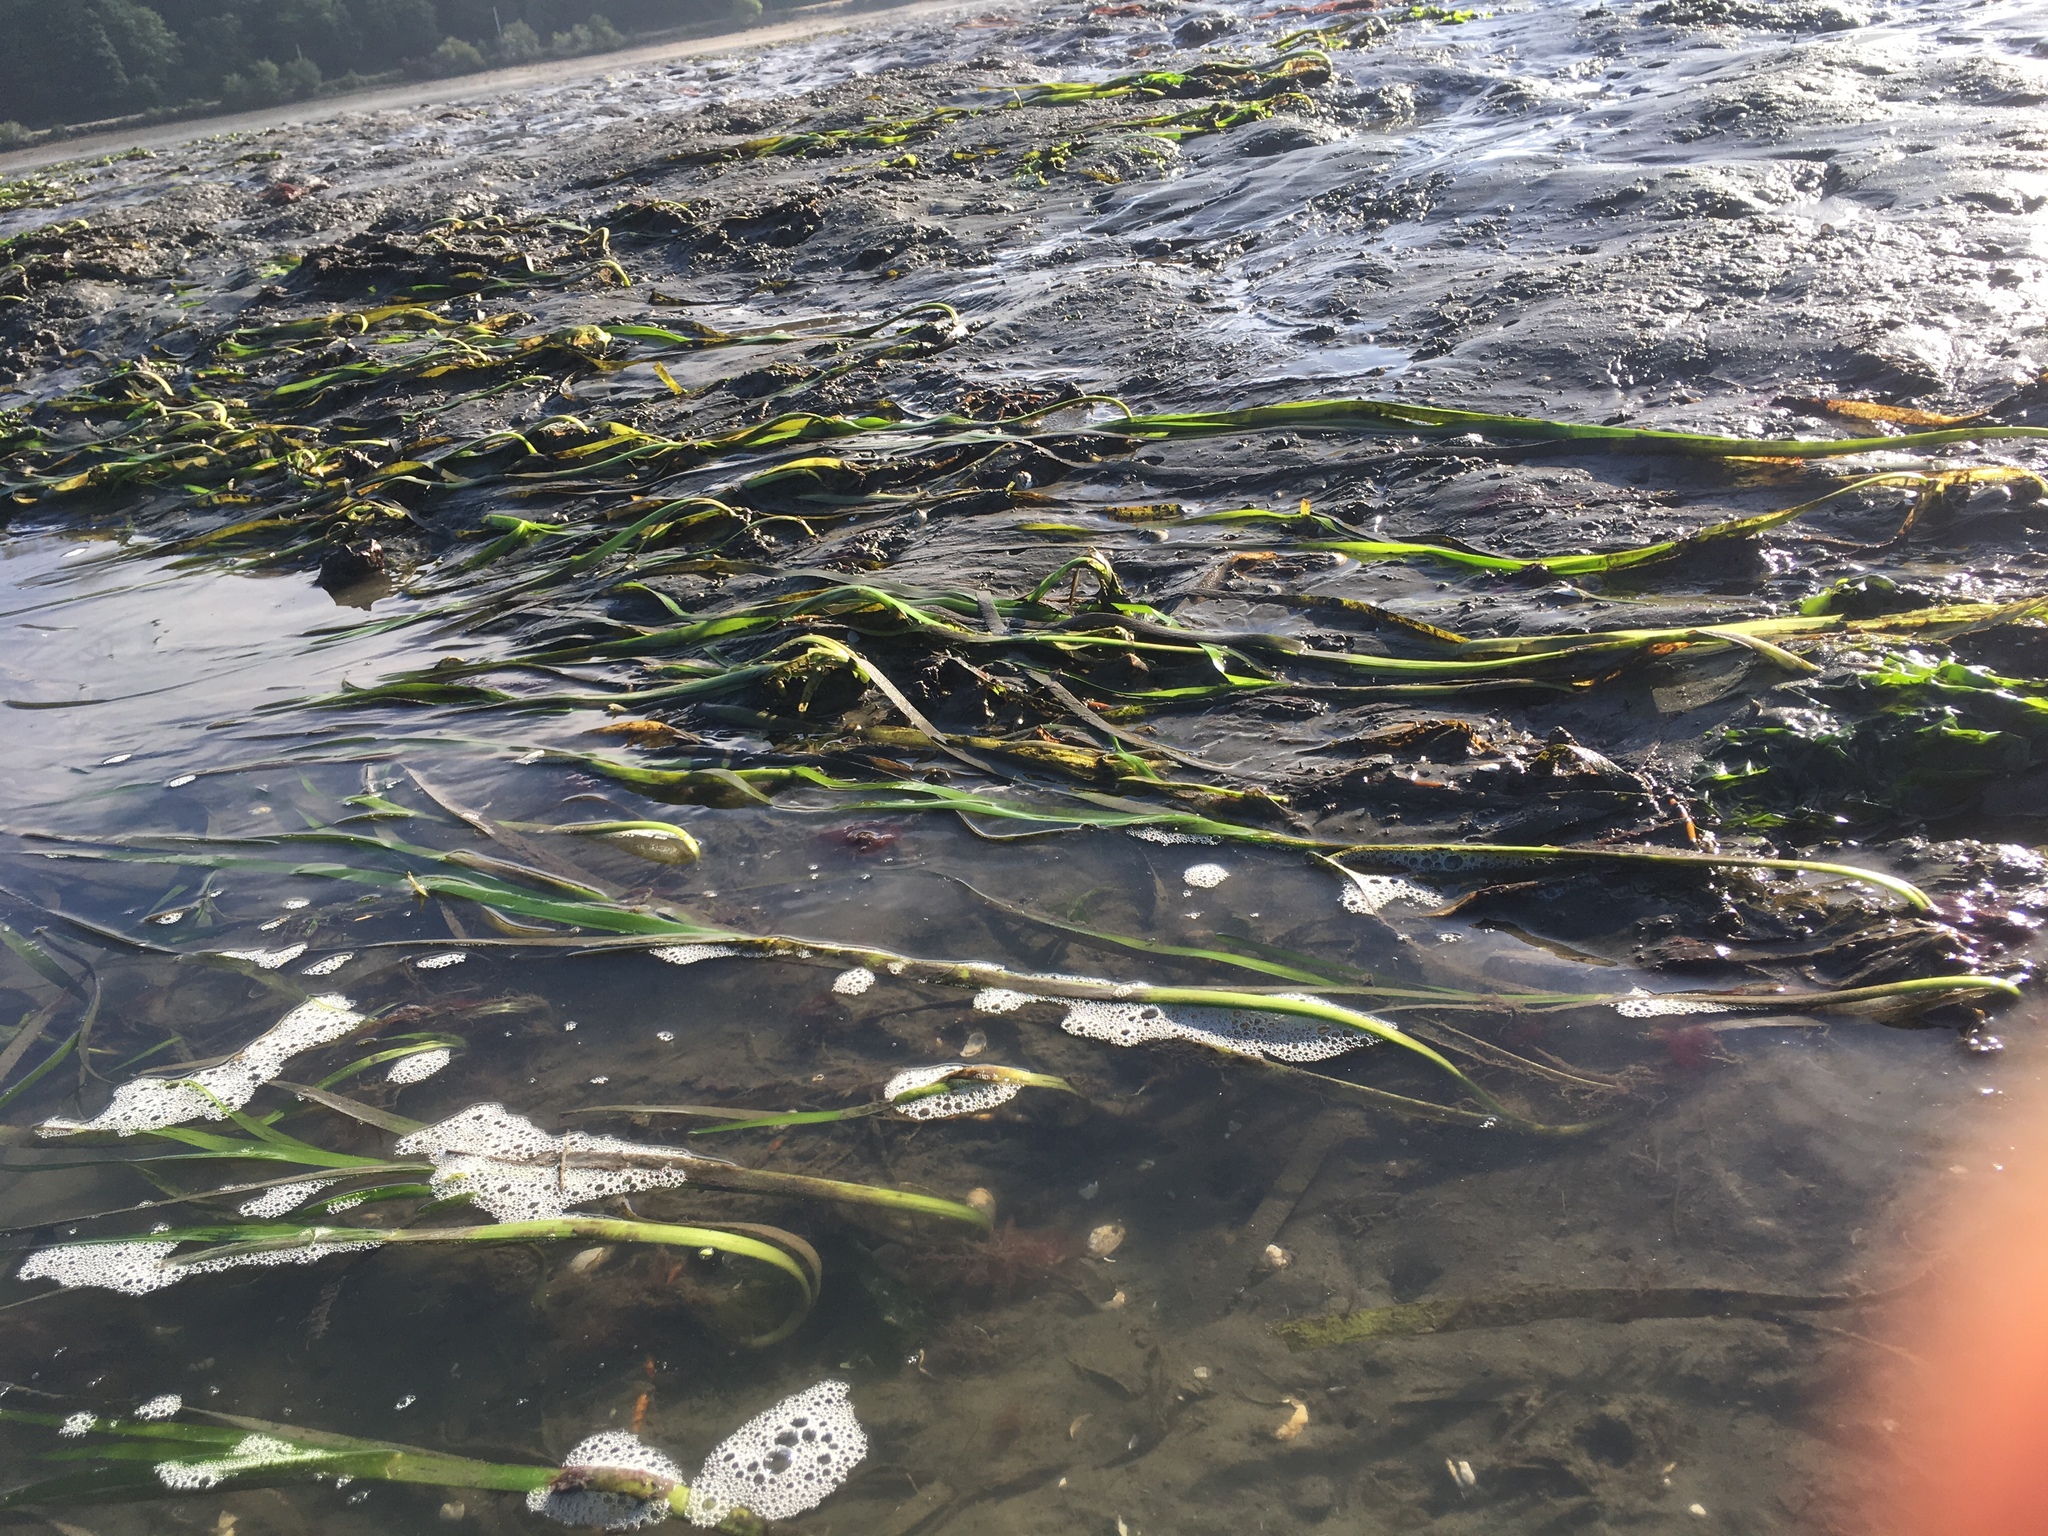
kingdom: Plantae
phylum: Tracheophyta
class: Liliopsida
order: Alismatales
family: Zosteraceae
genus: Zostera
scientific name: Zostera marina
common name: Eelgrass
